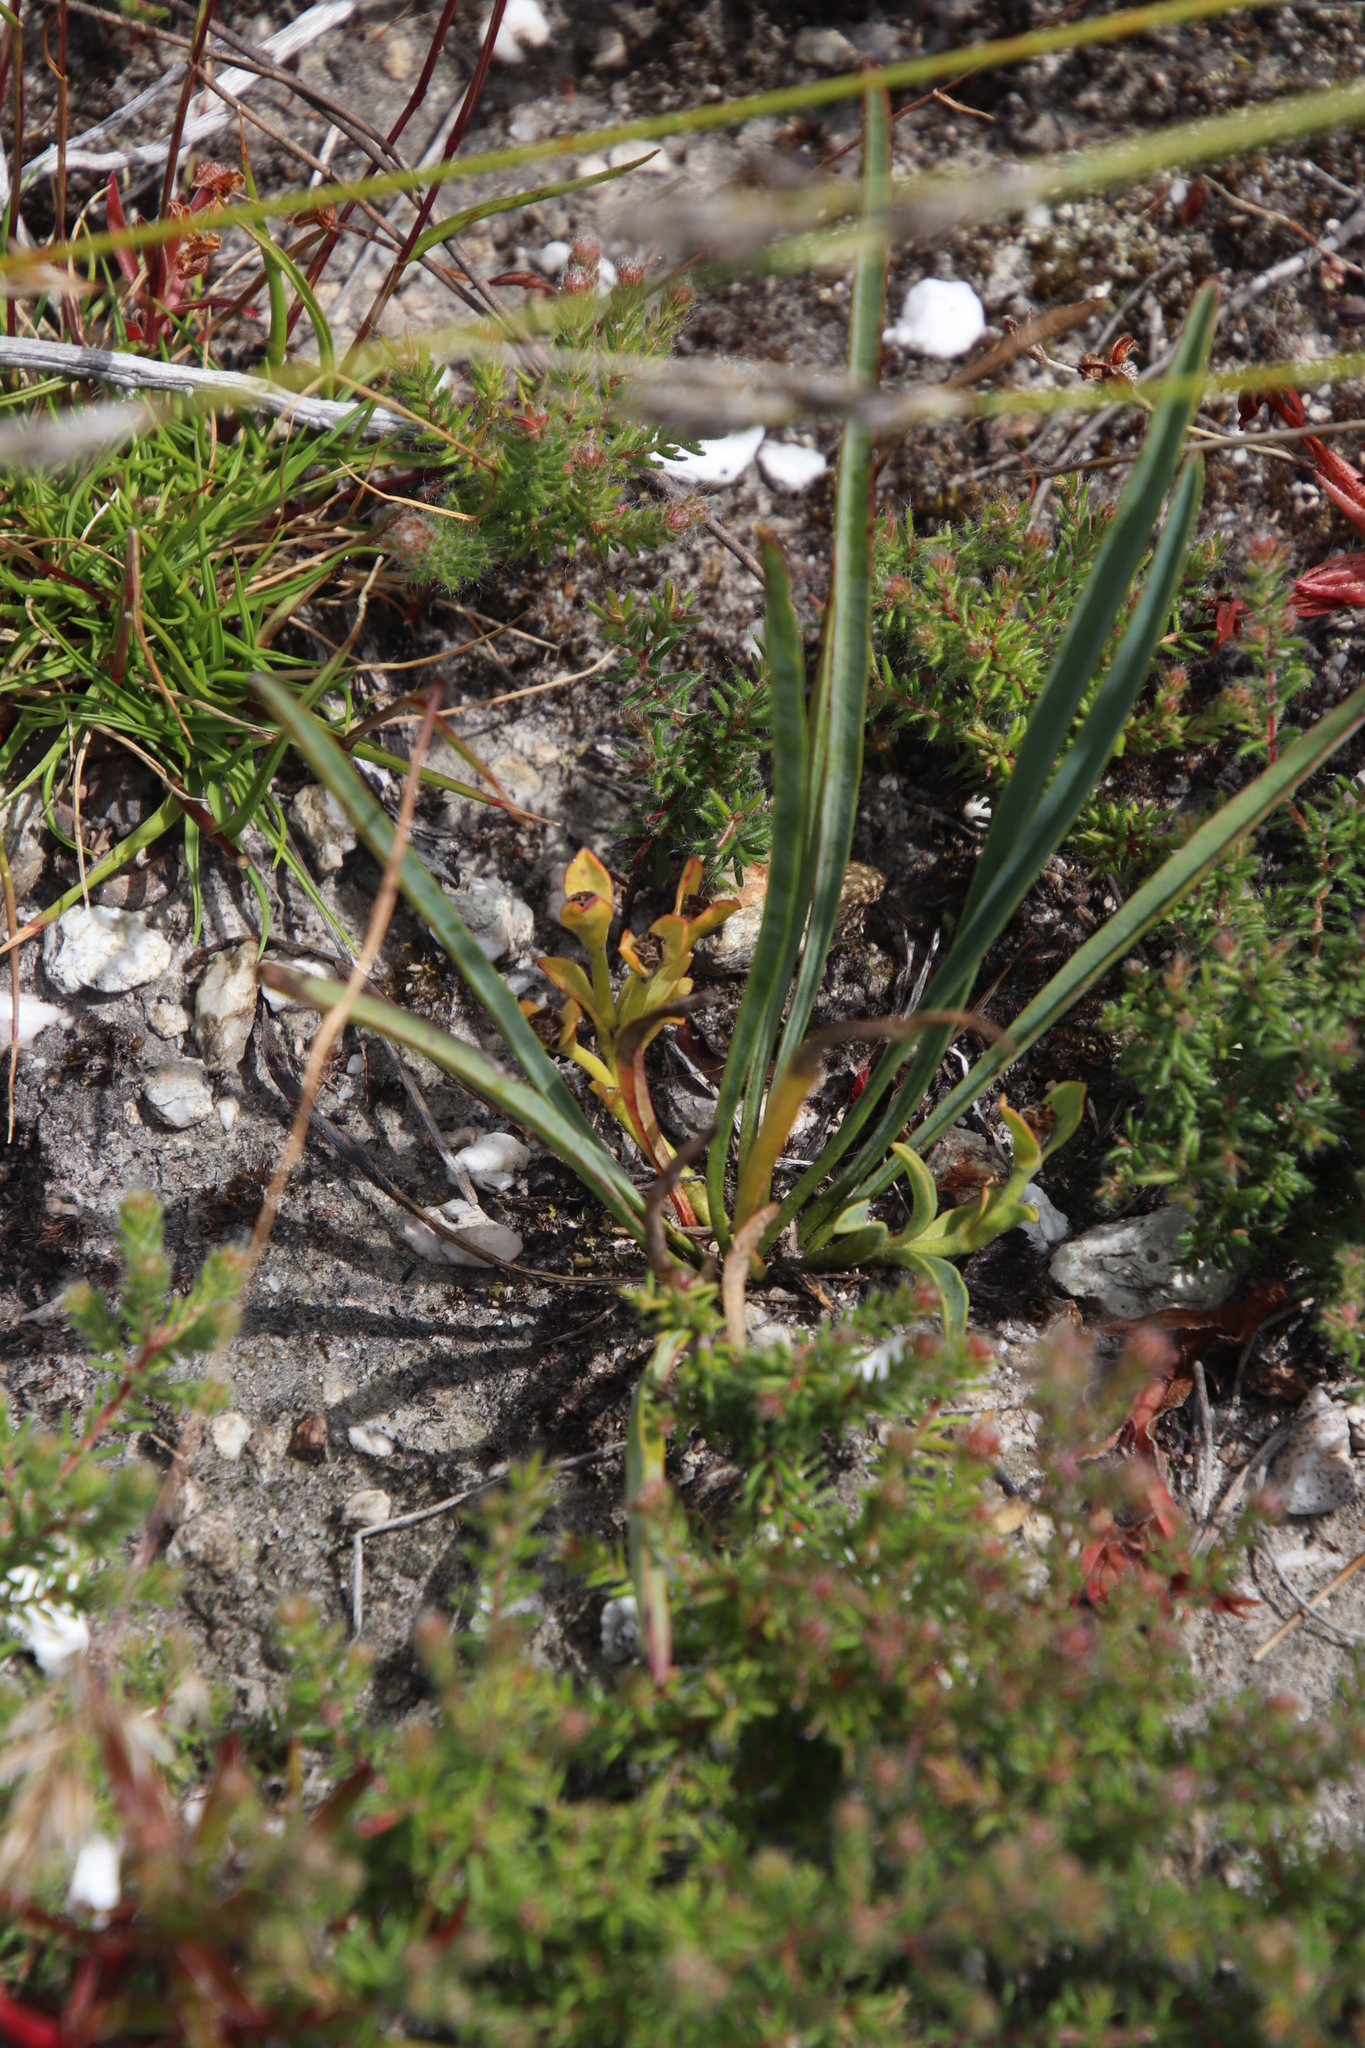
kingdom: Plantae
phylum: Tracheophyta
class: Magnoliopsida
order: Malpighiales
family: Euphorbiaceae
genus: Euphorbia
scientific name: Euphorbia silenifolia
